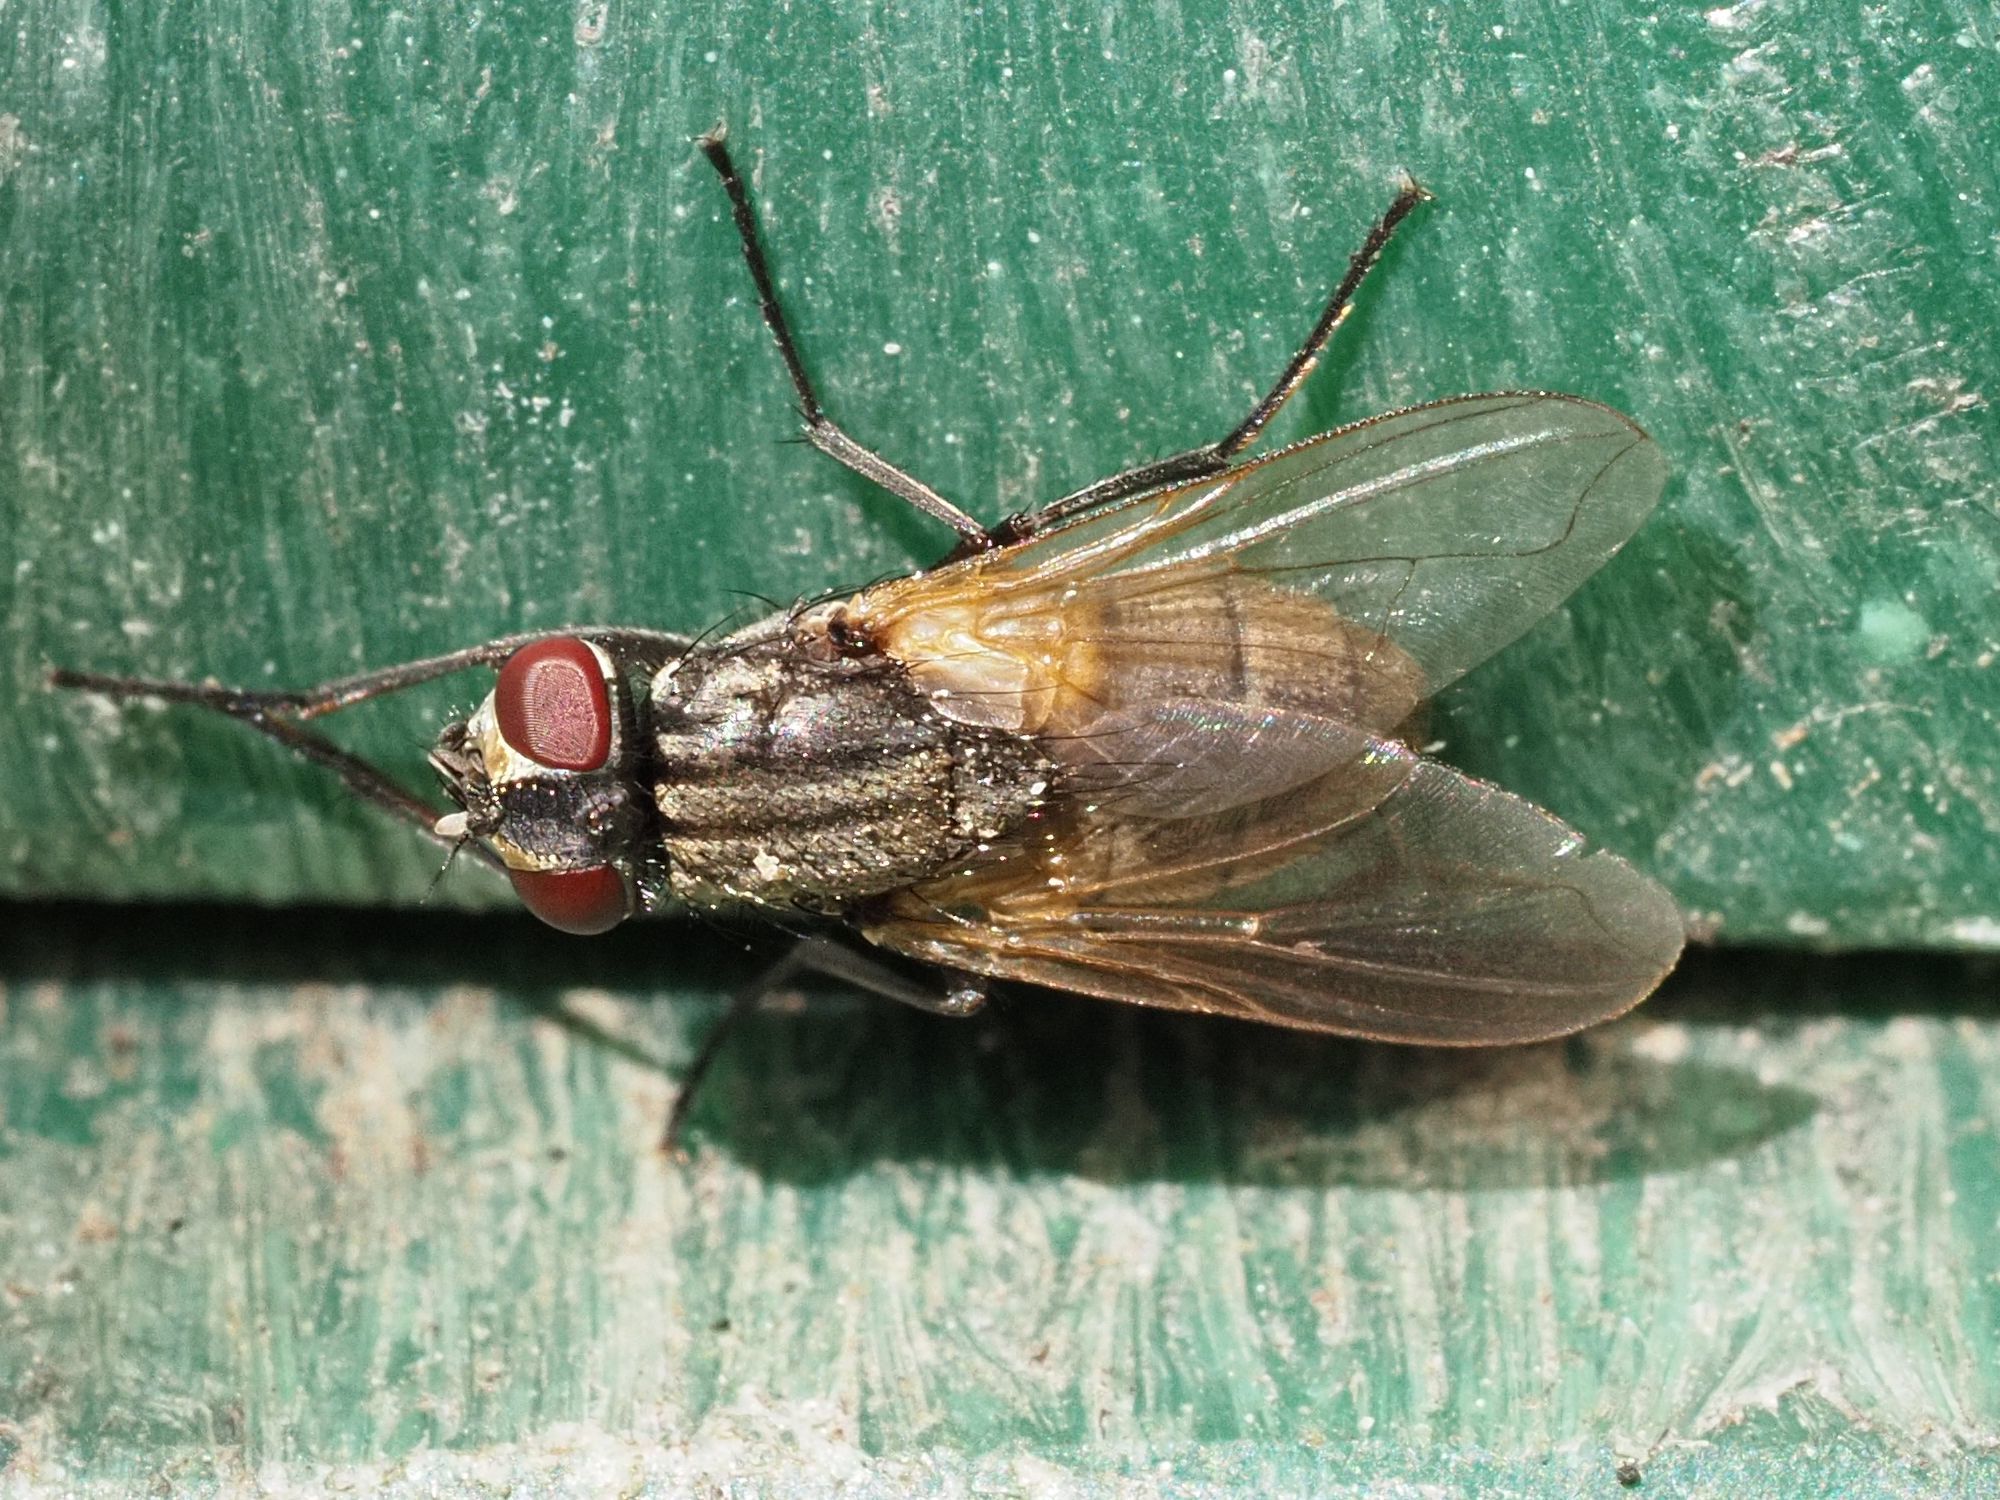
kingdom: Animalia
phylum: Arthropoda
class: Insecta
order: Diptera
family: Muscidae
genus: Musca
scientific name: Musca domestica
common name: House fly
